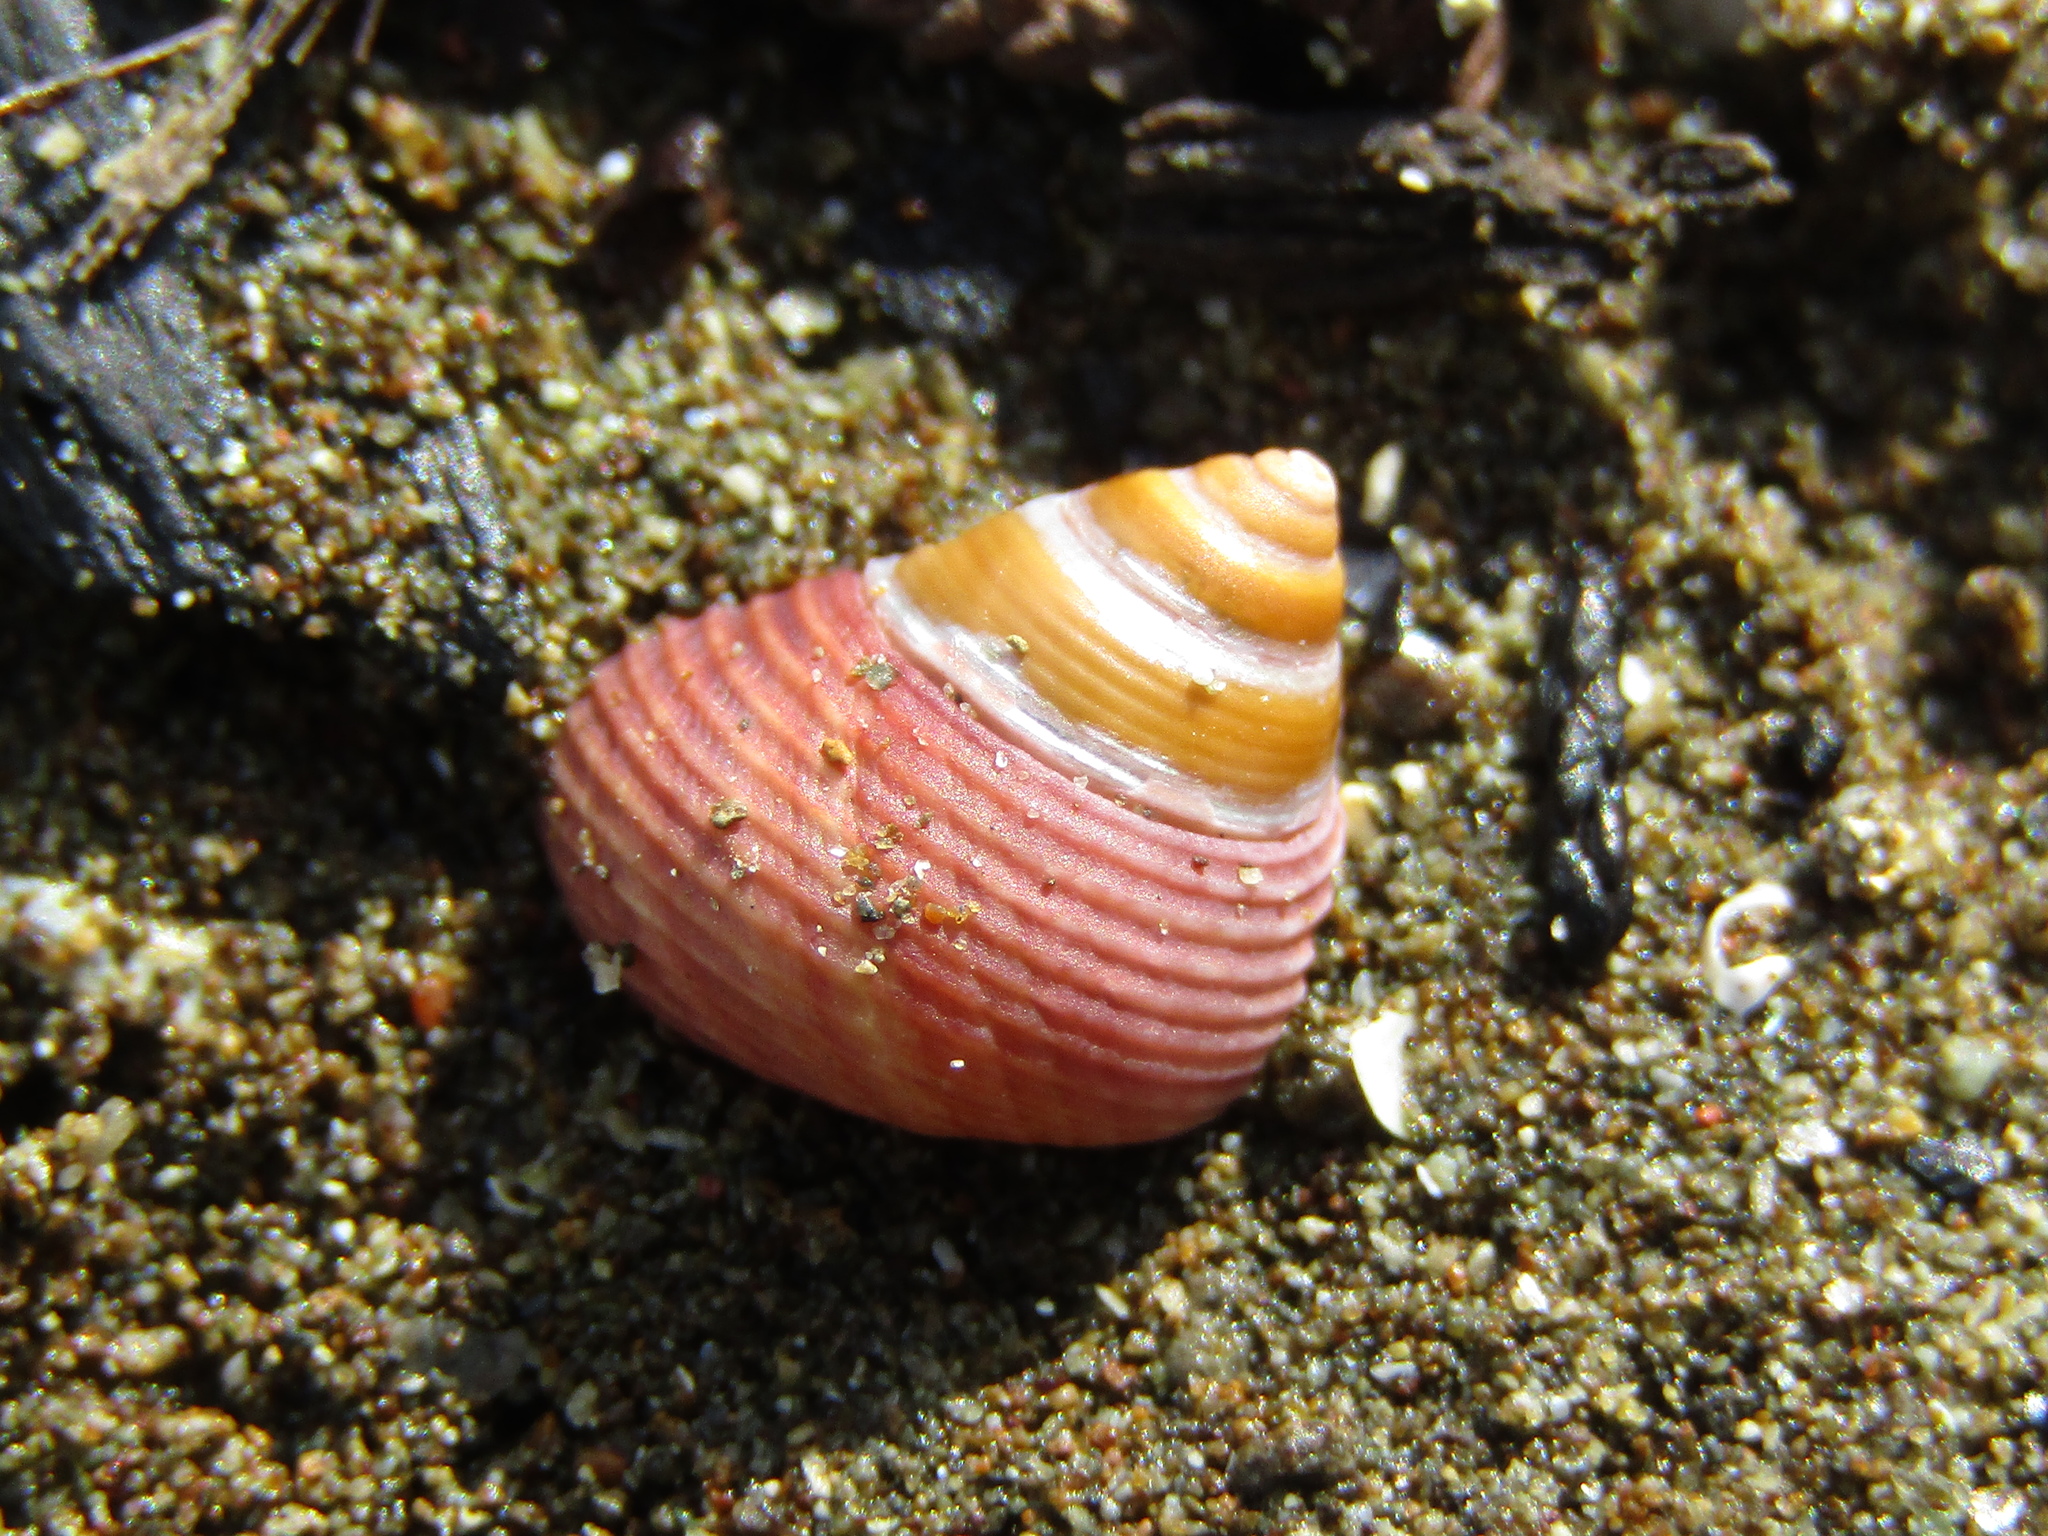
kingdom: Animalia
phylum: Mollusca
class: Gastropoda
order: Trochida
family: Trochidae
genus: Micrelenchus
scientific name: Micrelenchus huttonii
